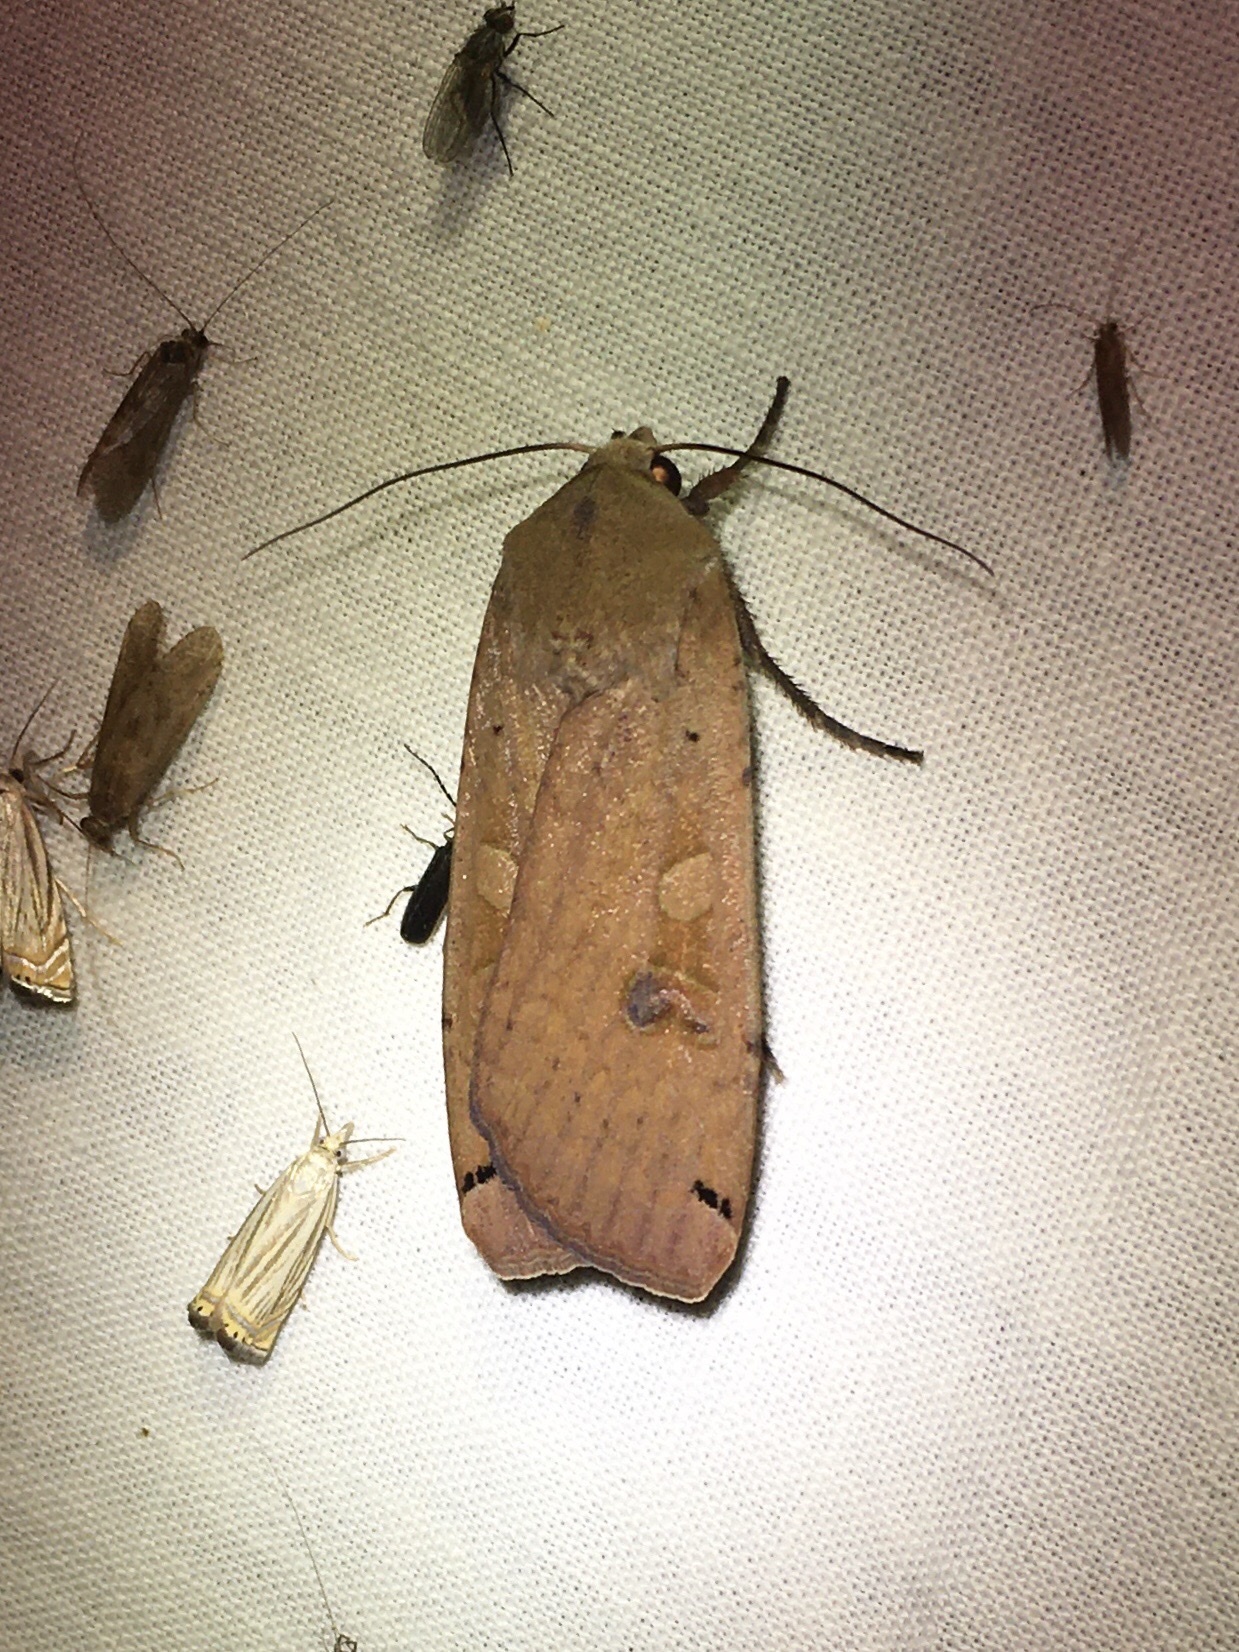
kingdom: Animalia
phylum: Arthropoda
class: Insecta
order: Lepidoptera
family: Noctuidae
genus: Noctua
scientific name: Noctua pronuba
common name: Large yellow underwing
